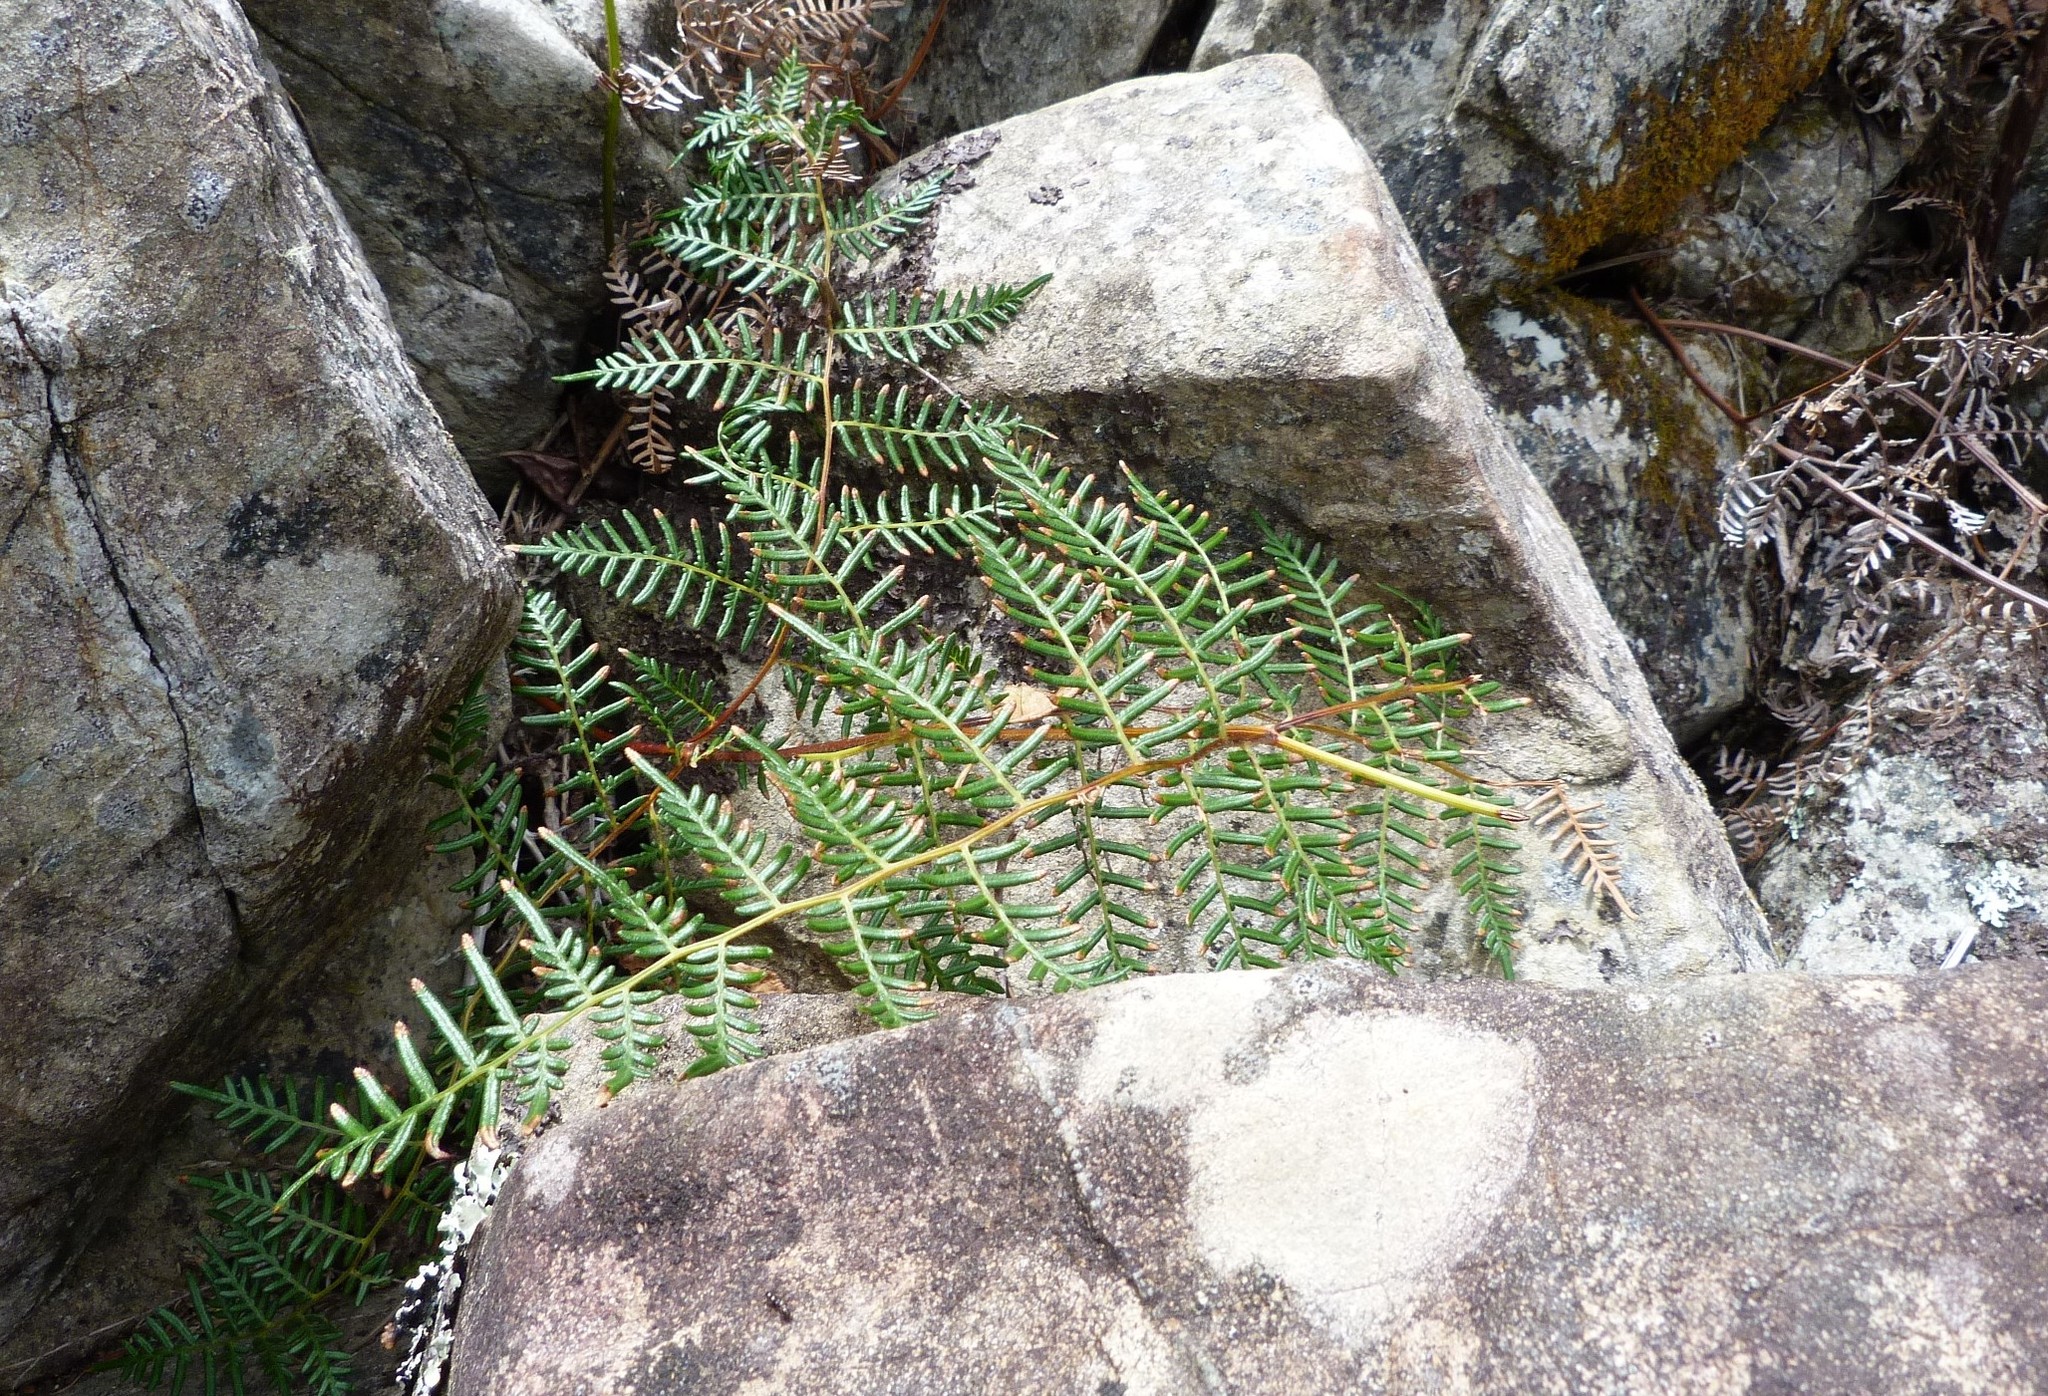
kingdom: Plantae
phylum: Tracheophyta
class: Polypodiopsida
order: Polypodiales
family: Dennstaedtiaceae
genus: Pteridium
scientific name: Pteridium esculentum
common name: Bracken fern
